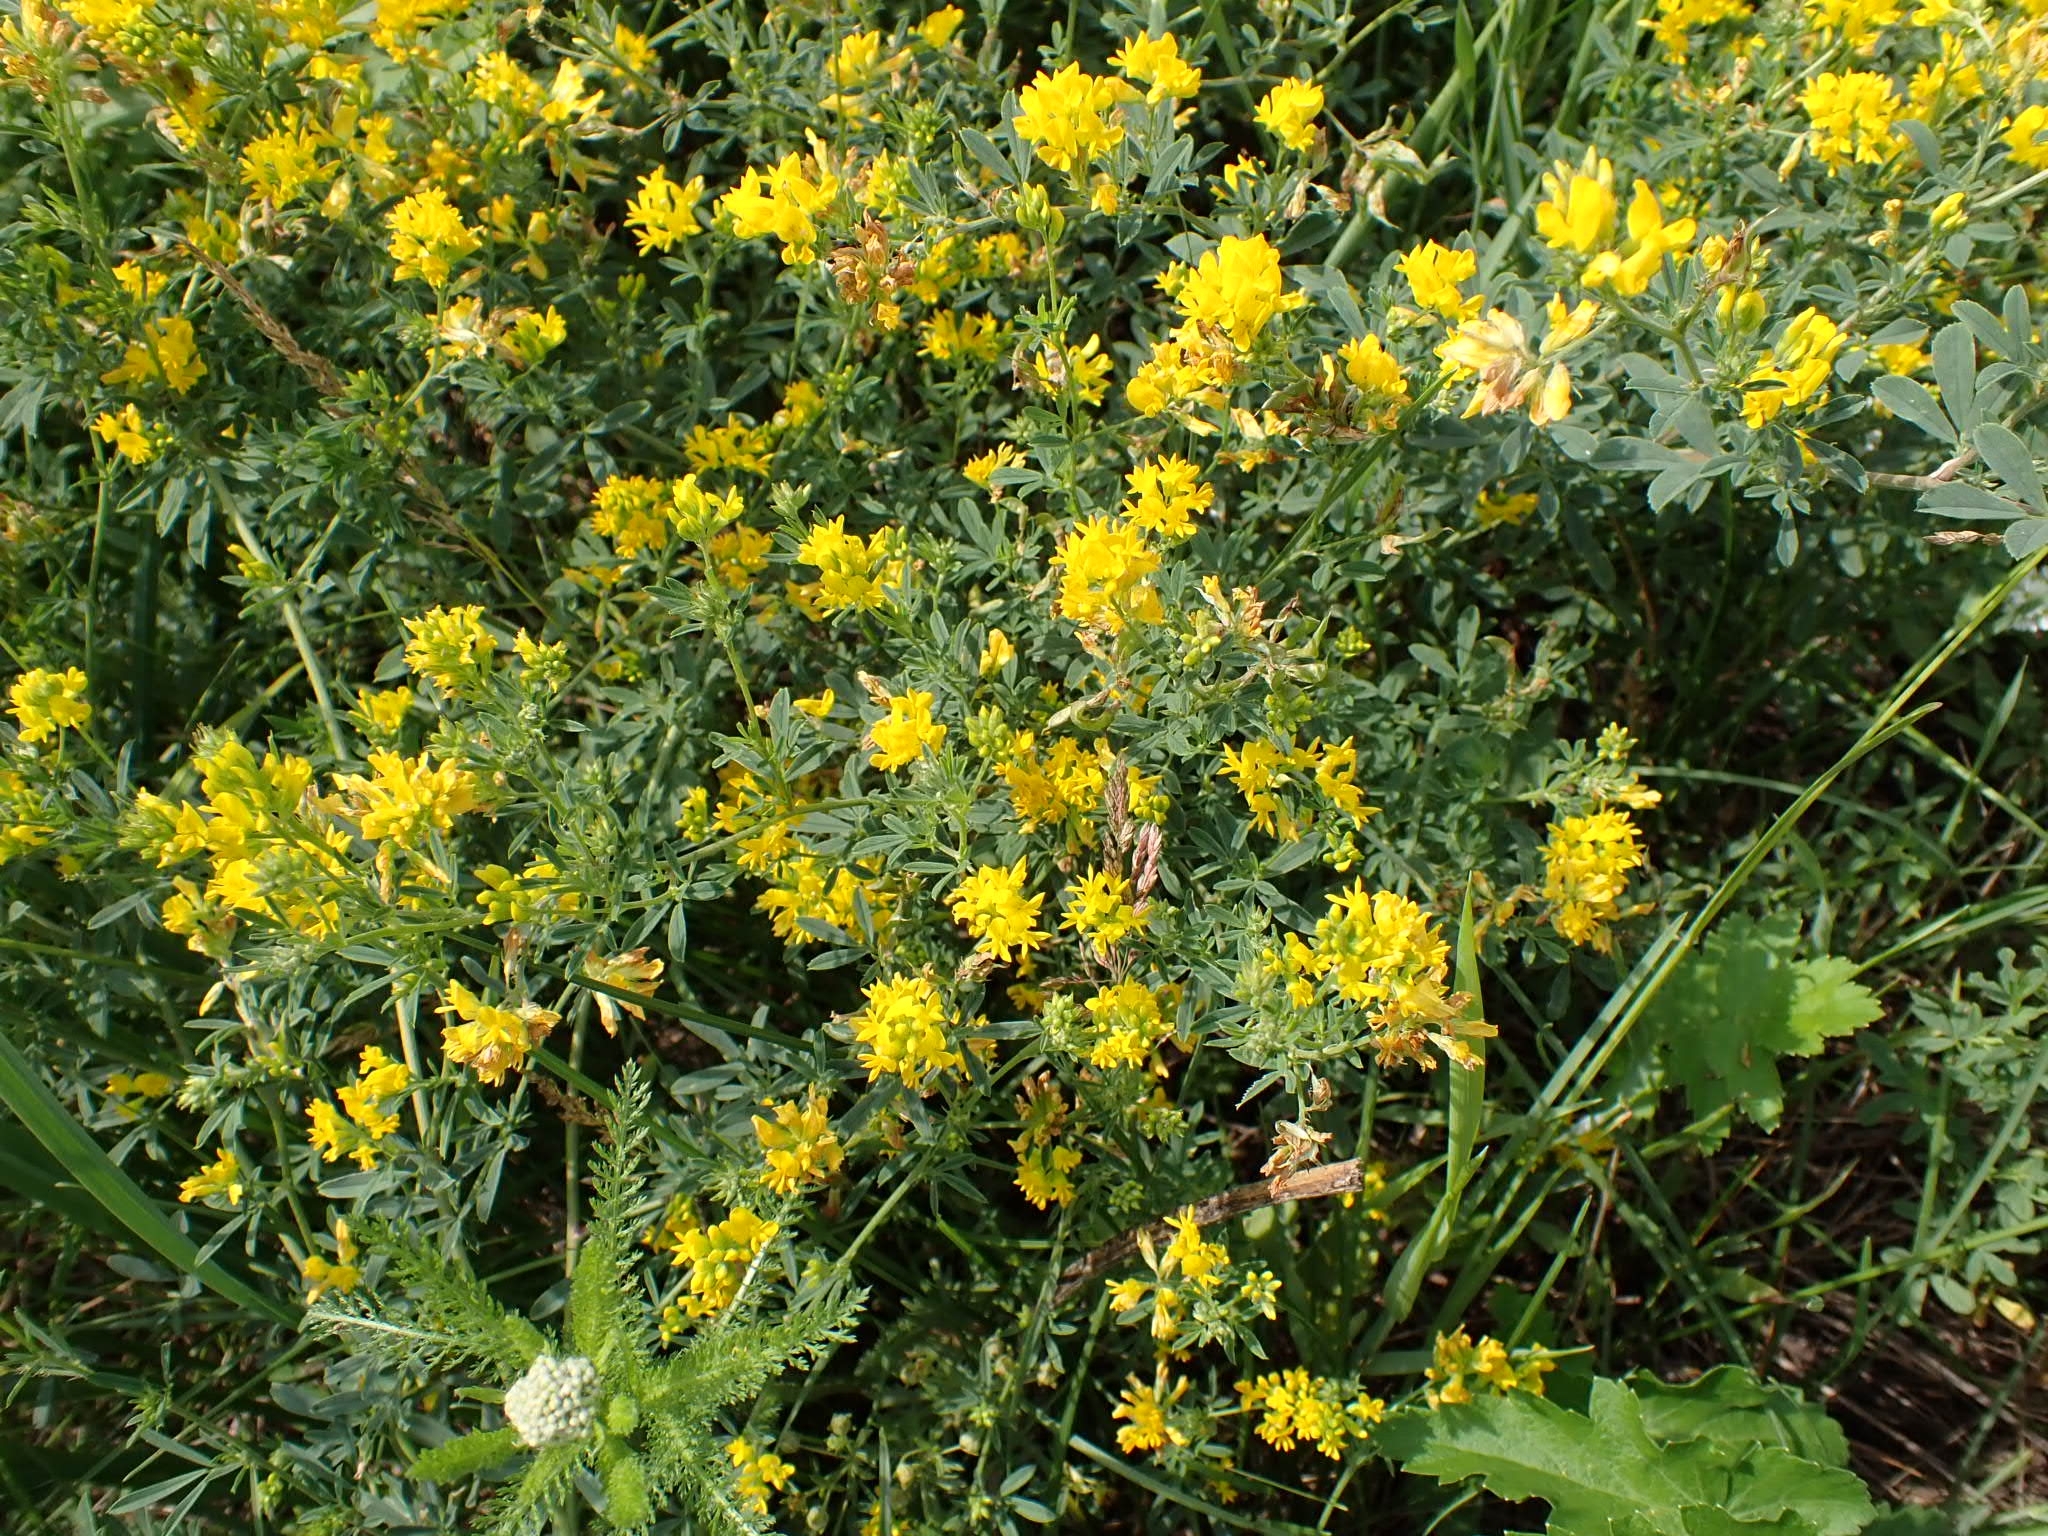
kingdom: Plantae
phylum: Tracheophyta
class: Magnoliopsida
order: Fabales
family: Fabaceae
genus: Medicago
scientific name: Medicago falcata
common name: Sickle medick
